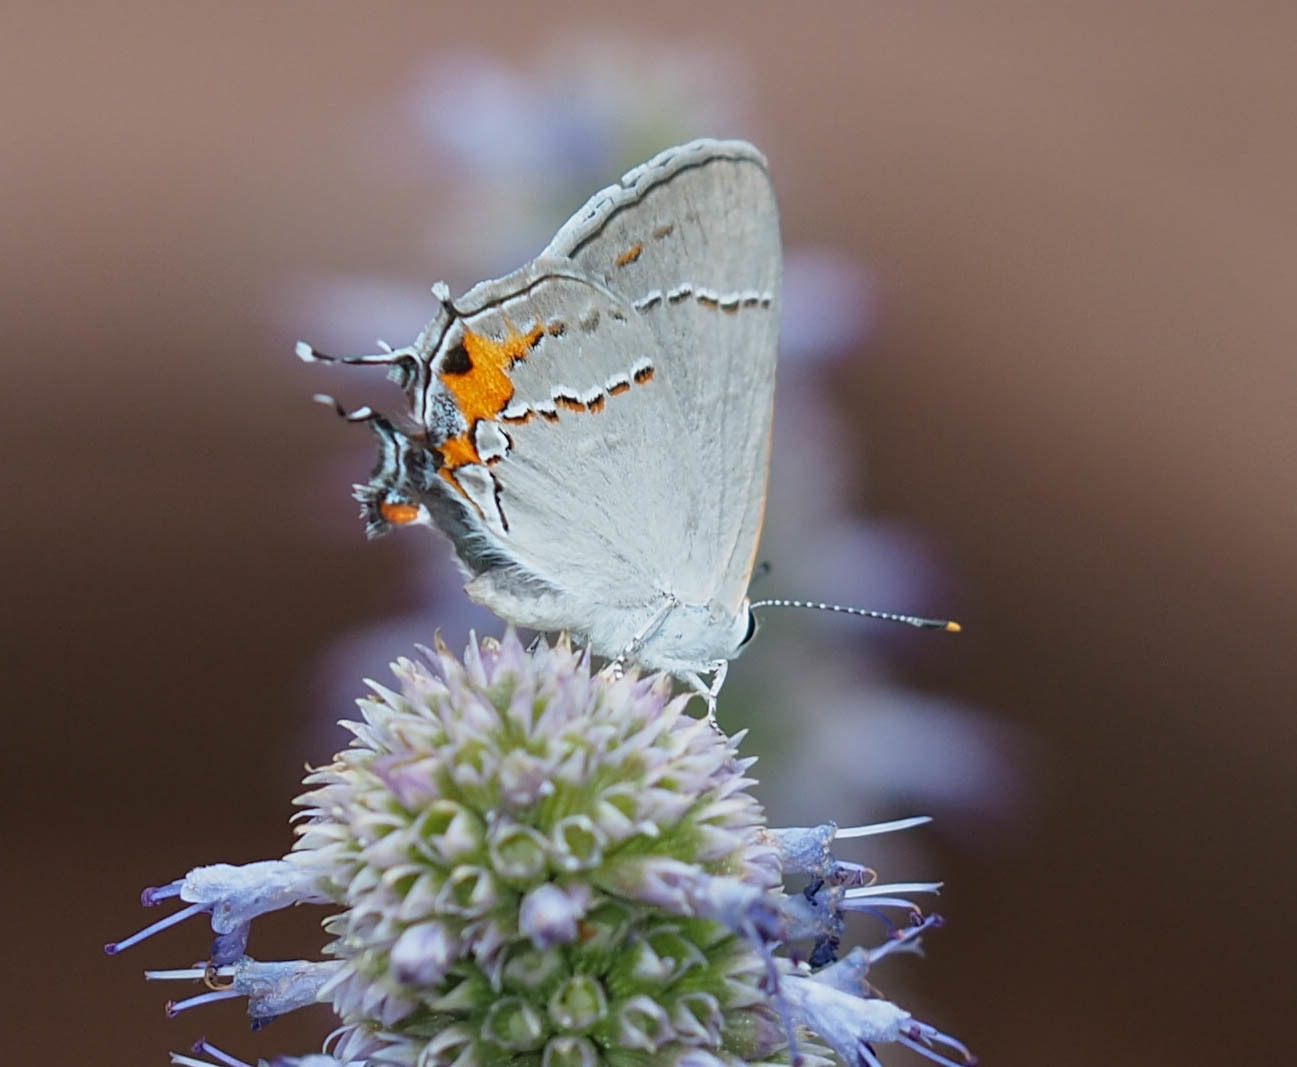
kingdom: Animalia
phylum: Arthropoda
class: Insecta
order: Lepidoptera
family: Lycaenidae
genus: Strymon
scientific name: Strymon melinus
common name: Gray hairstreak
